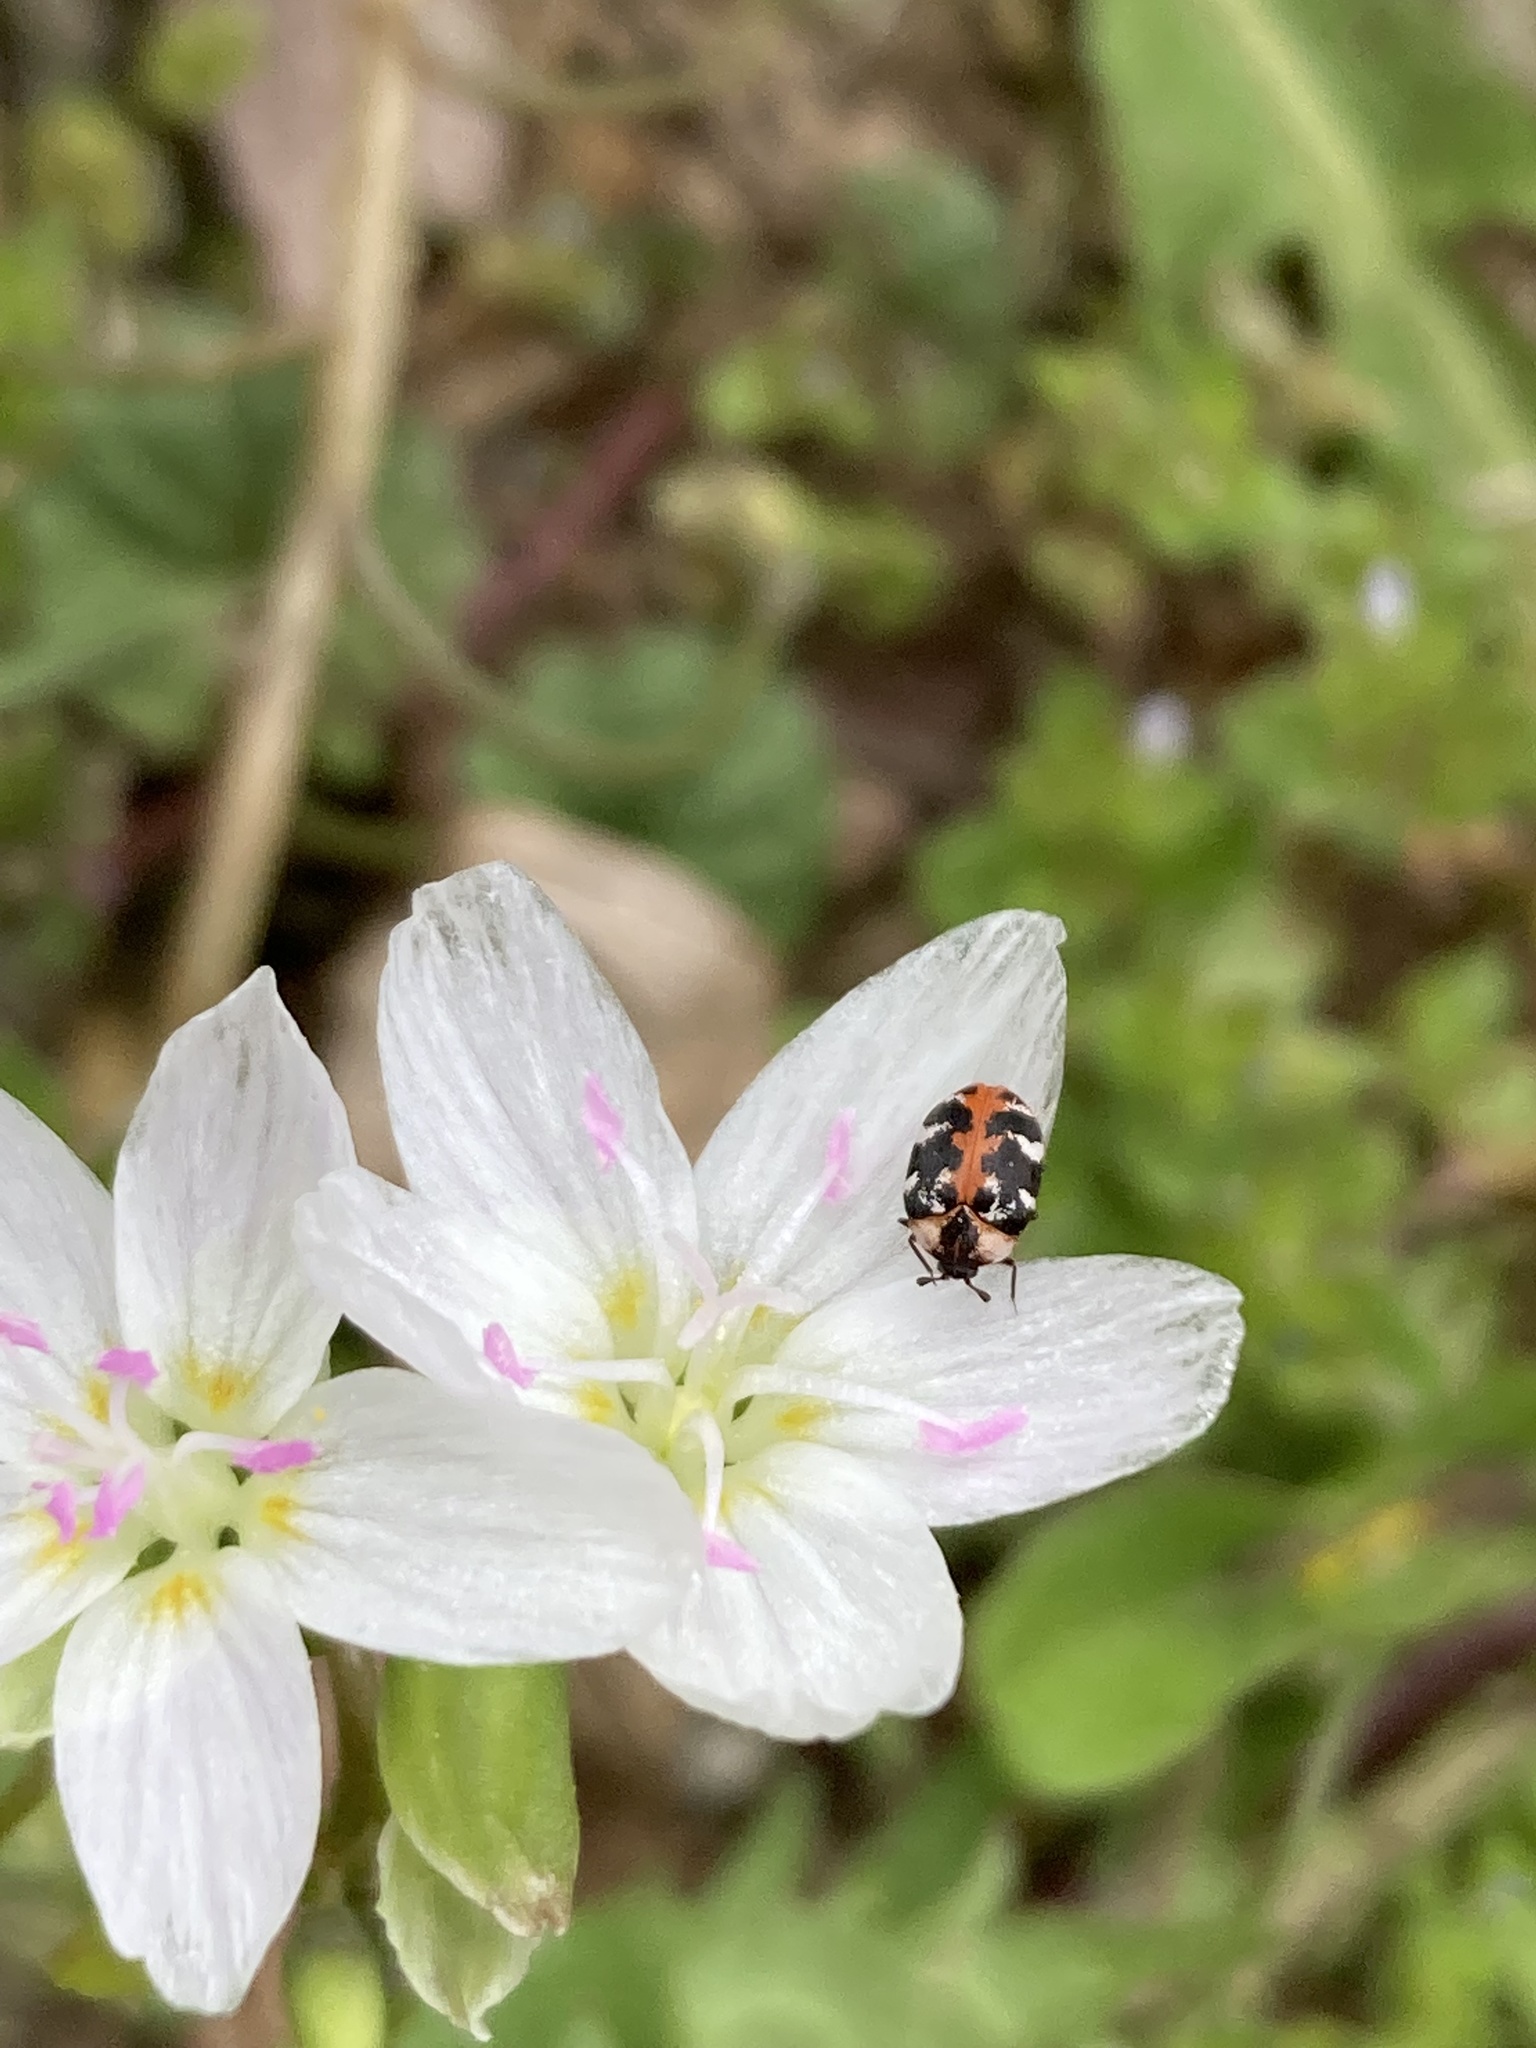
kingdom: Animalia
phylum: Arthropoda
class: Insecta
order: Coleoptera
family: Dermestidae
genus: Anthrenus
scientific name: Anthrenus scrophulariae
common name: Buffalo carpet beetle
